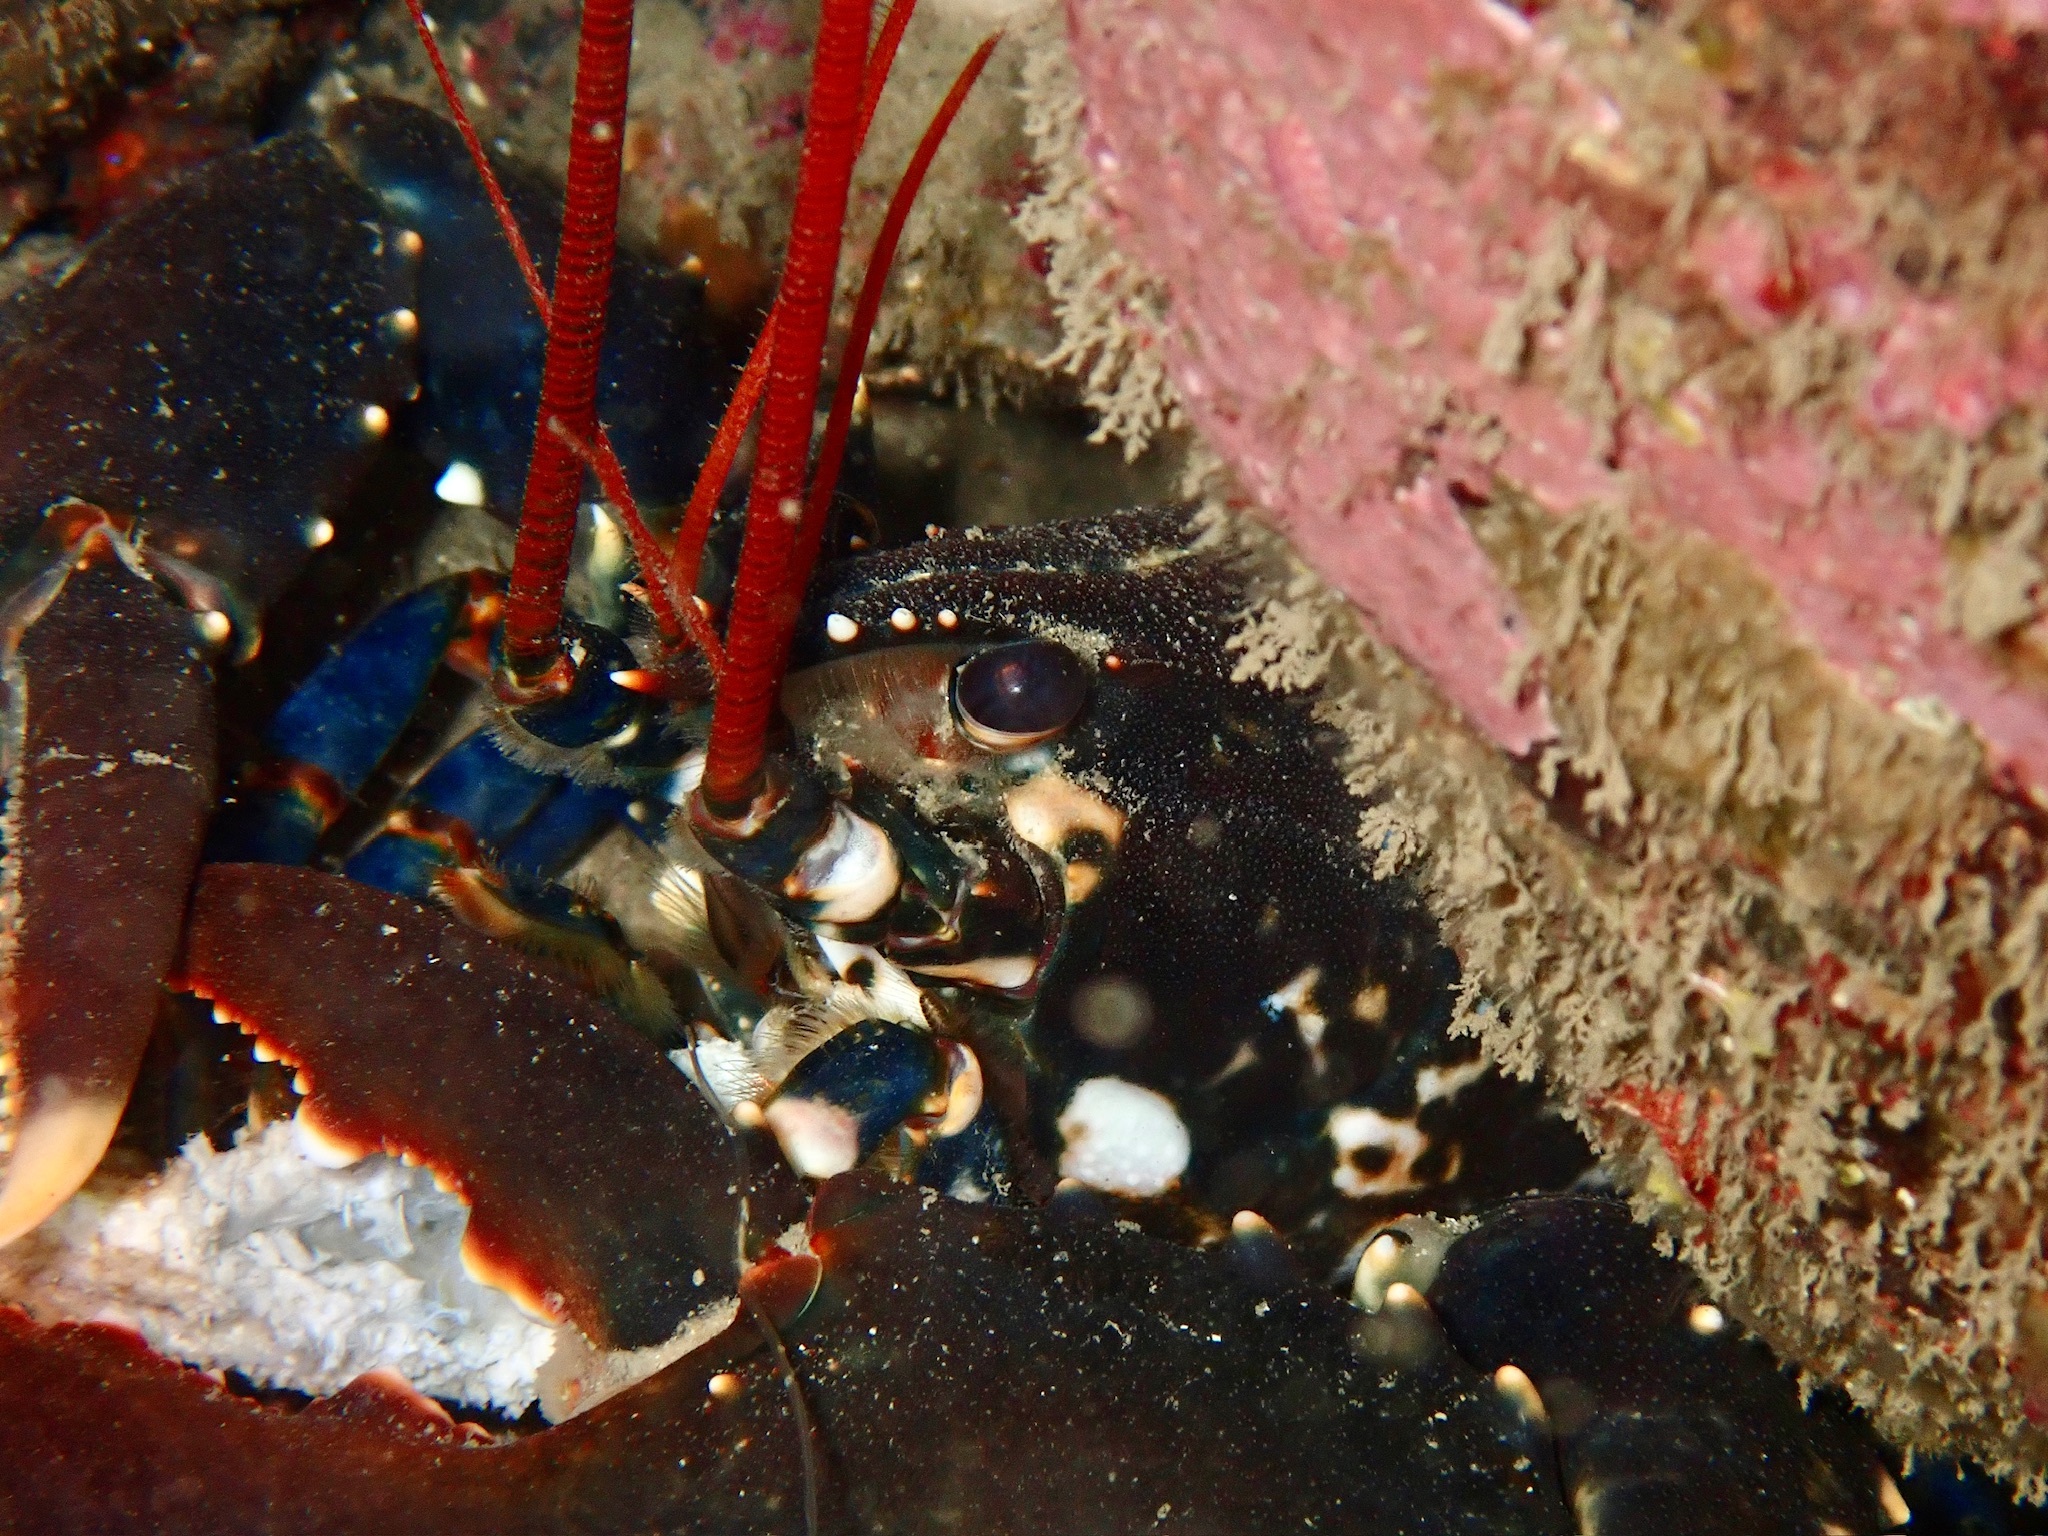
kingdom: Animalia
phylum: Arthropoda
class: Malacostraca
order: Decapoda
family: Nephropidae
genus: Homarus
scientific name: Homarus gammarus
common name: European lobster
